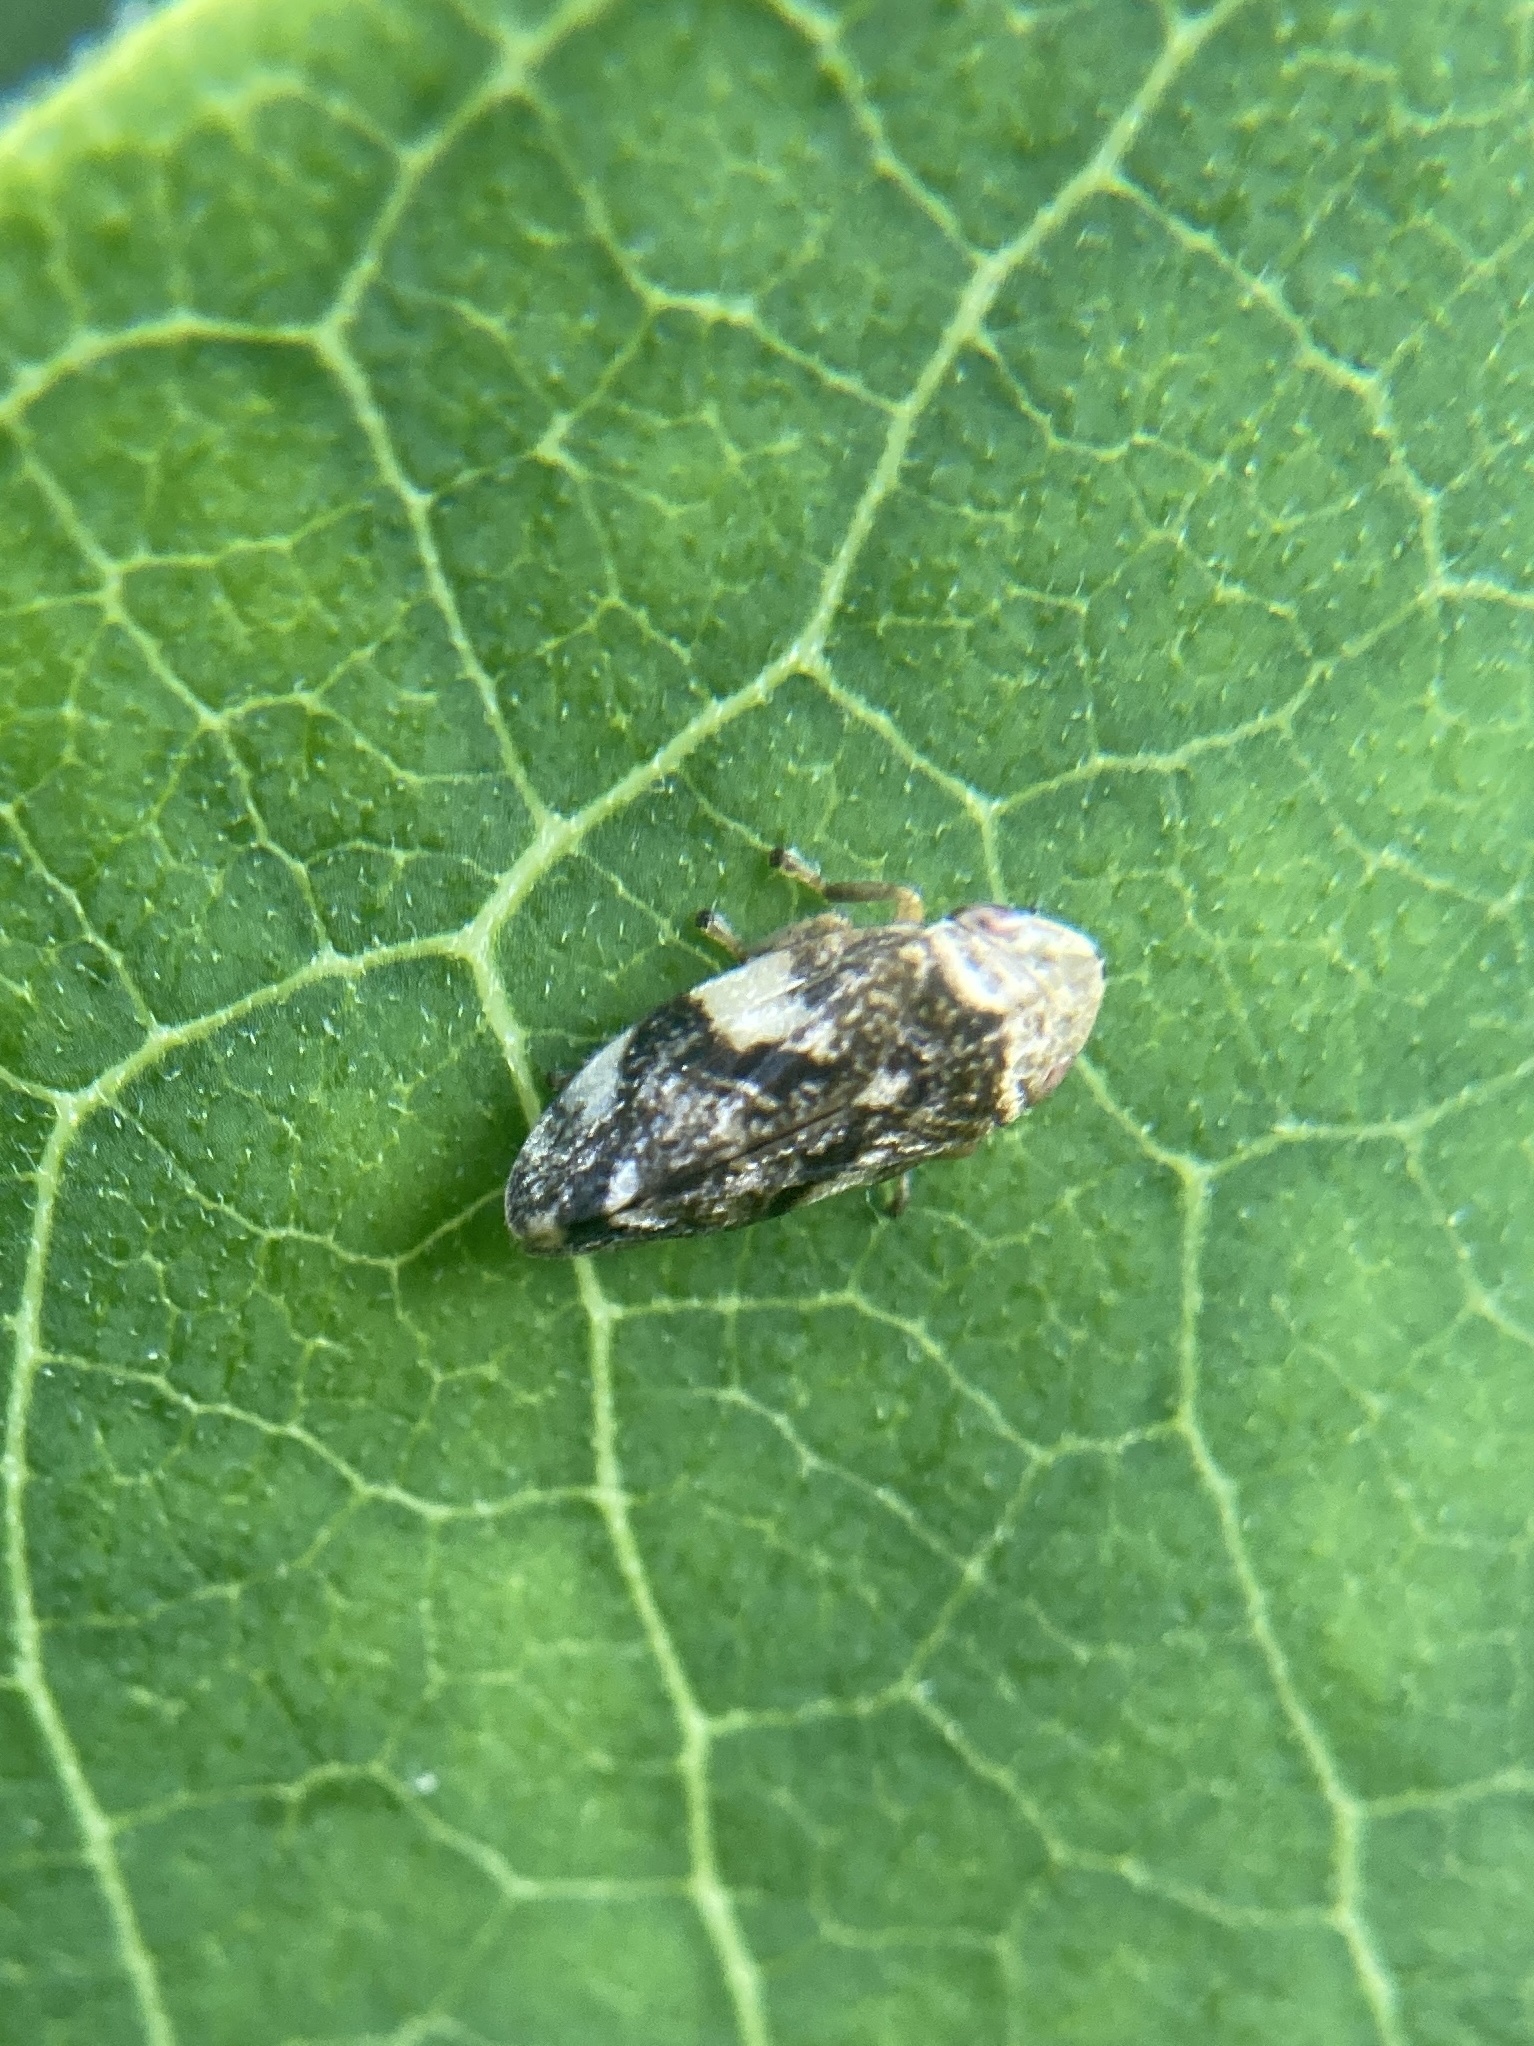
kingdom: Animalia
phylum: Arthropoda
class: Insecta
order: Hemiptera
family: Aphrophoridae
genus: Philaenus
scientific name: Philaenus spumarius
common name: Meadow spittlebug
